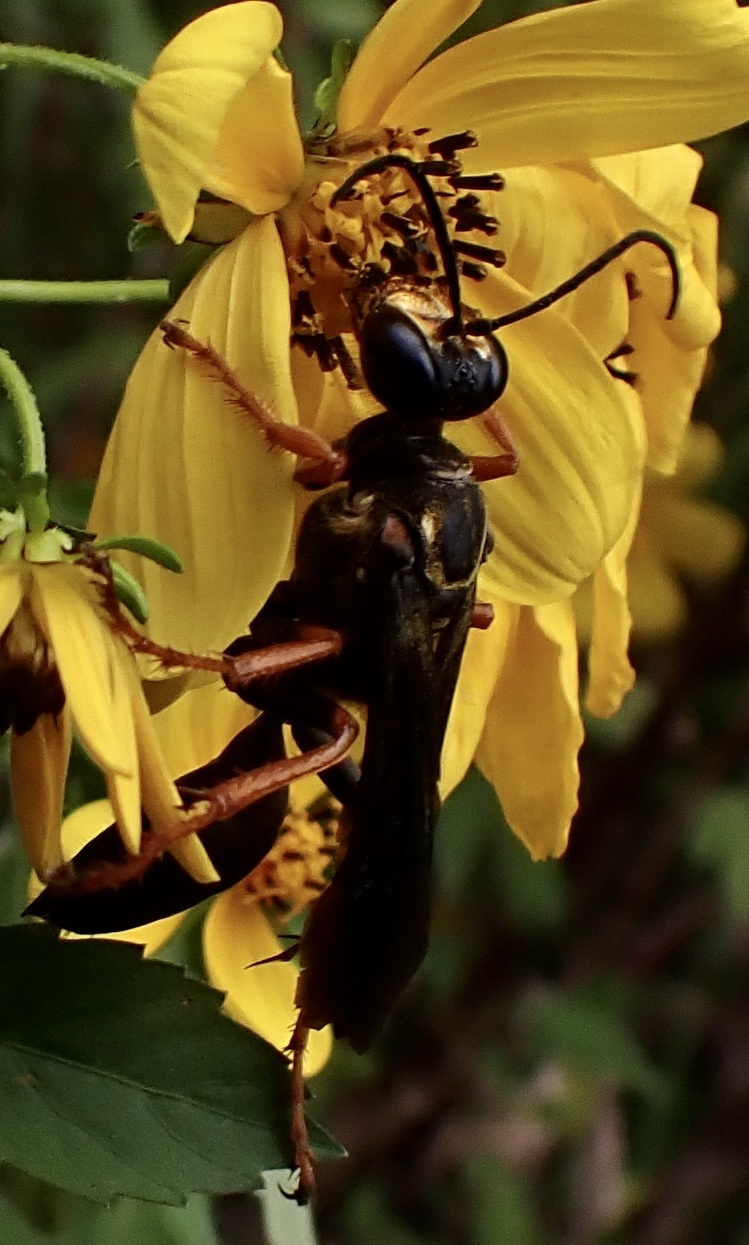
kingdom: Animalia
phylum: Arthropoda
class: Insecta
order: Hymenoptera
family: Sphecidae
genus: Sphex
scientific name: Sphex flavovestitus
